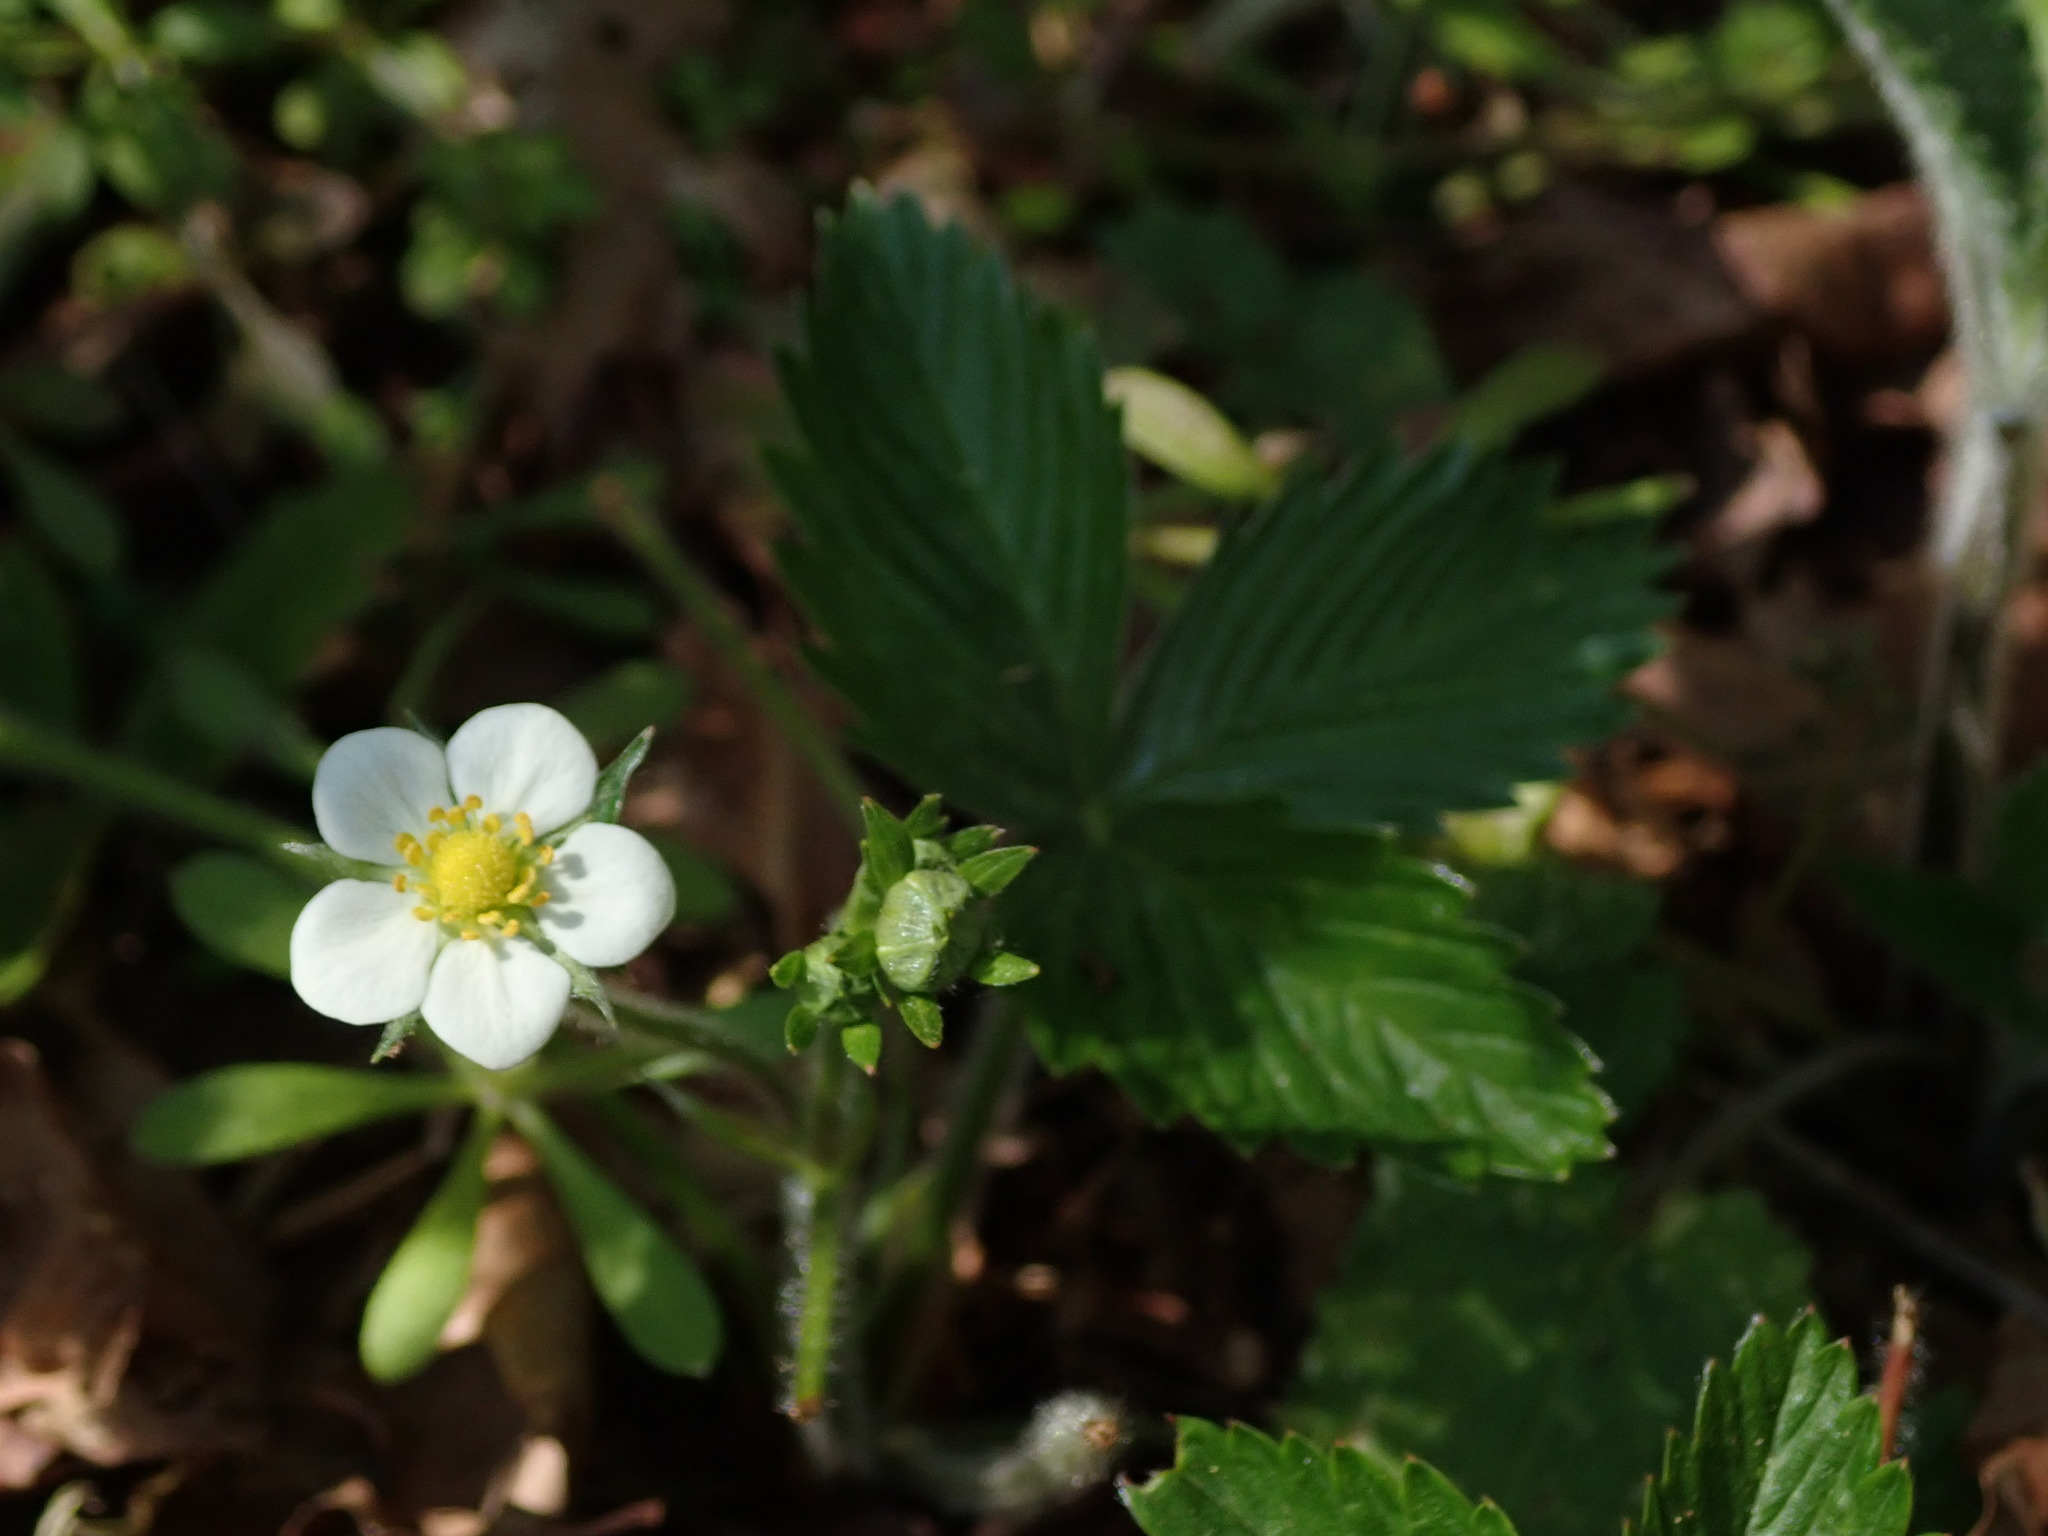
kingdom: Plantae
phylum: Tracheophyta
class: Magnoliopsida
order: Rosales
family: Rosaceae
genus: Fragaria
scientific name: Fragaria vesca
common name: Wild strawberry
